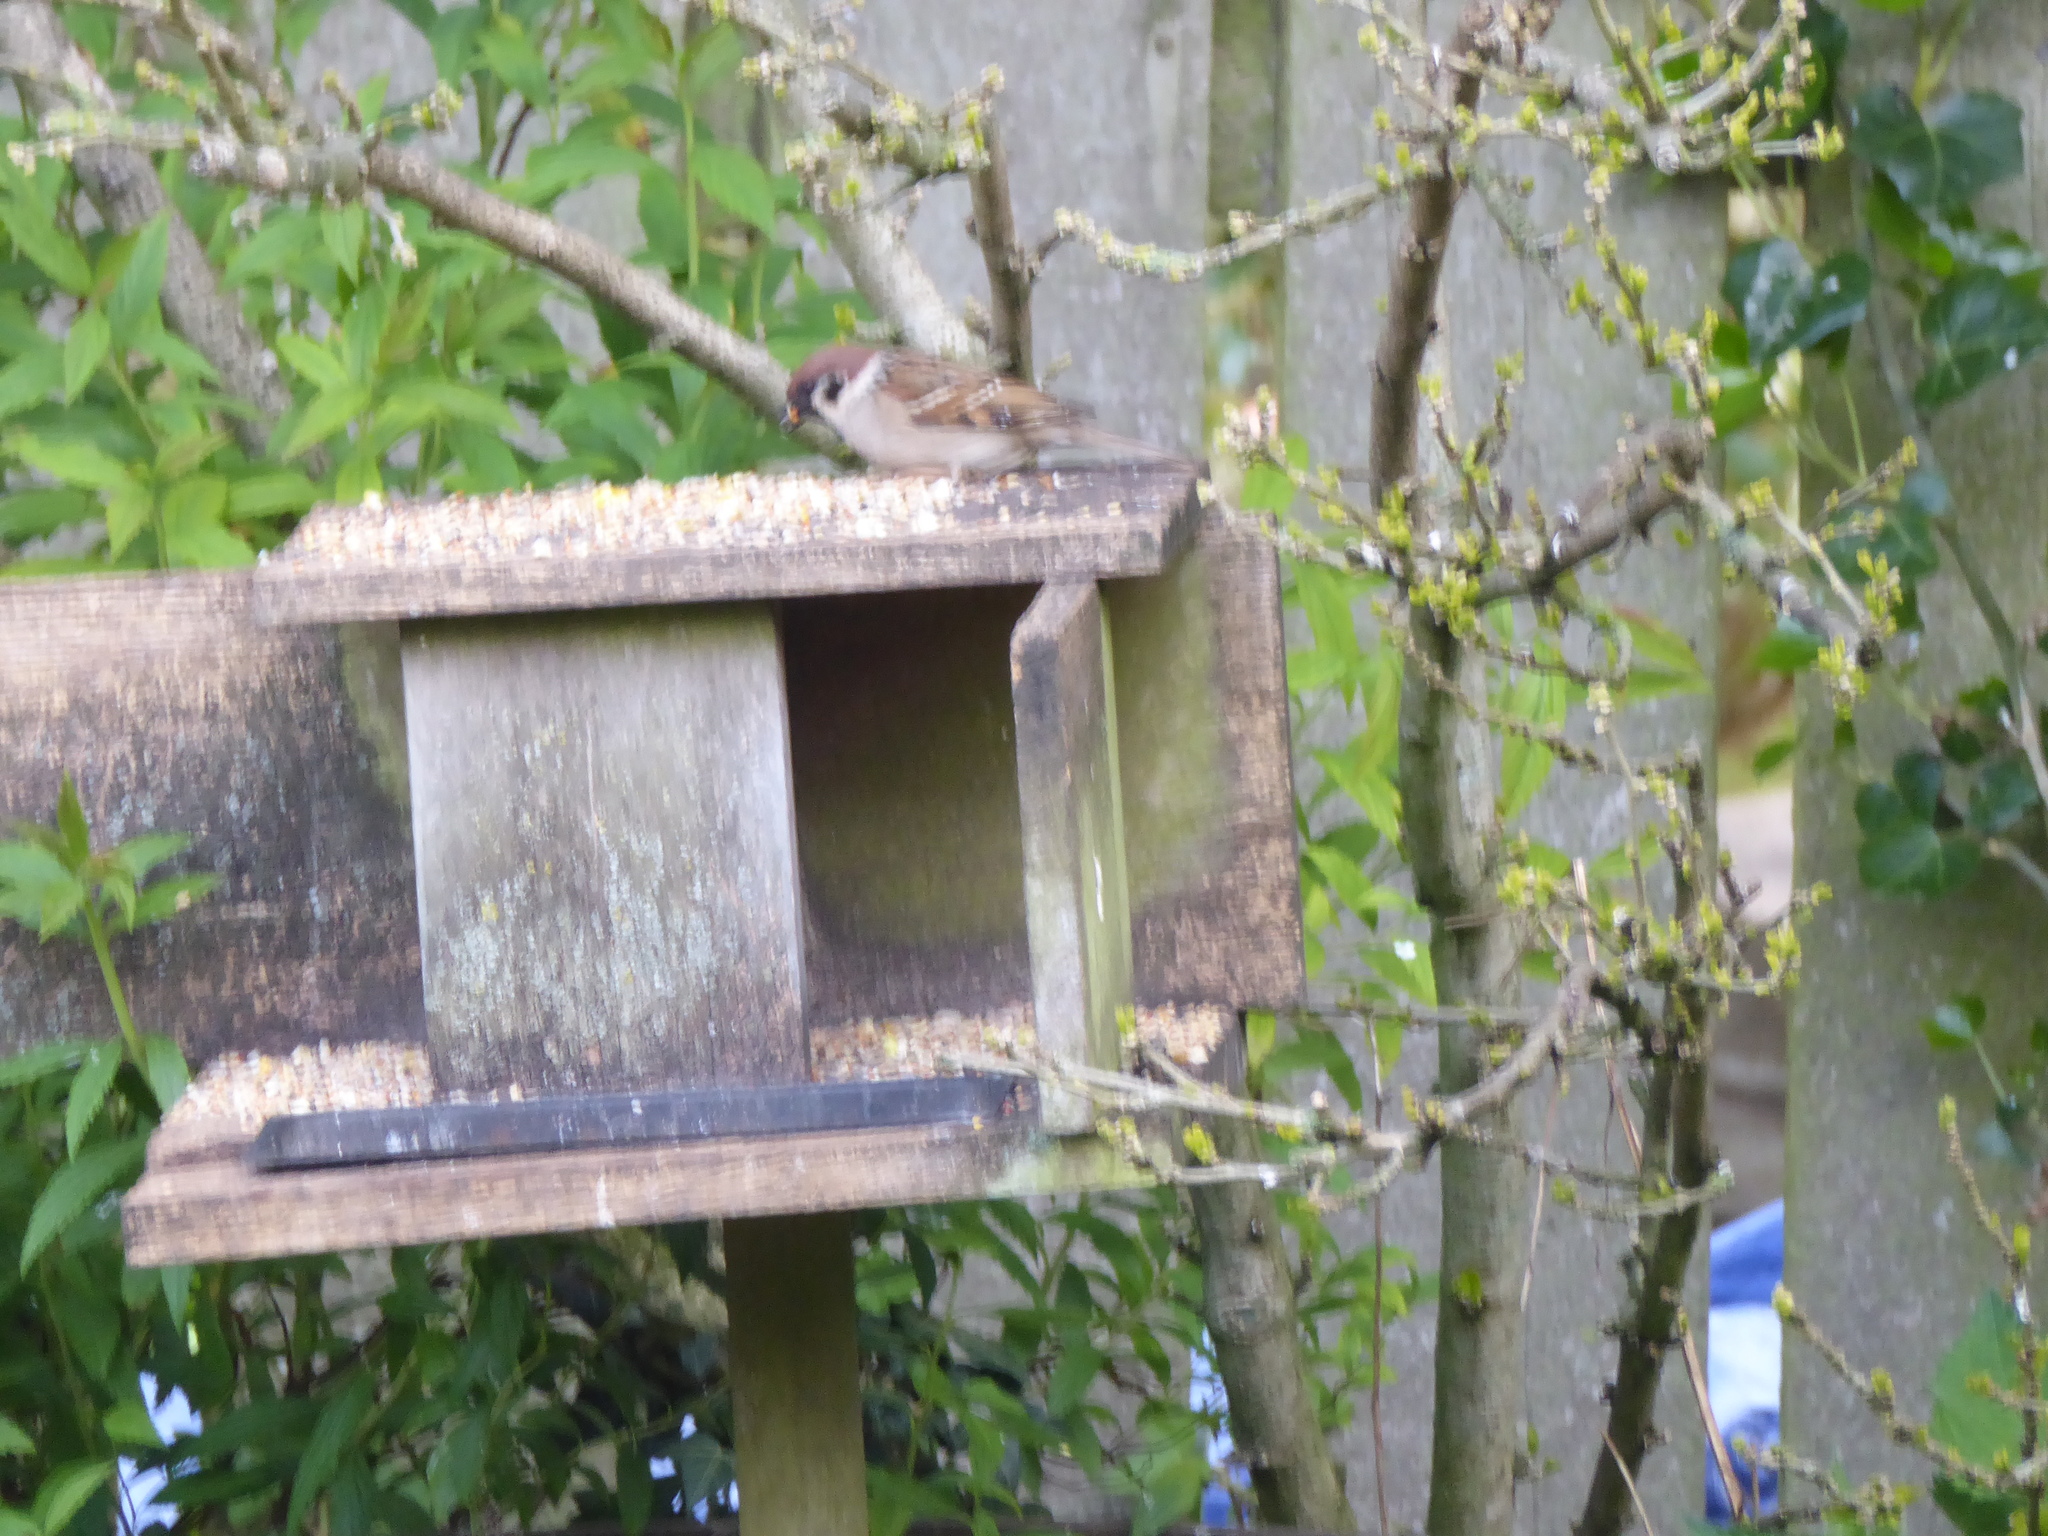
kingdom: Animalia
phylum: Chordata
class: Aves
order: Passeriformes
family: Passeridae
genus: Passer
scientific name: Passer montanus
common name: Eurasian tree sparrow
